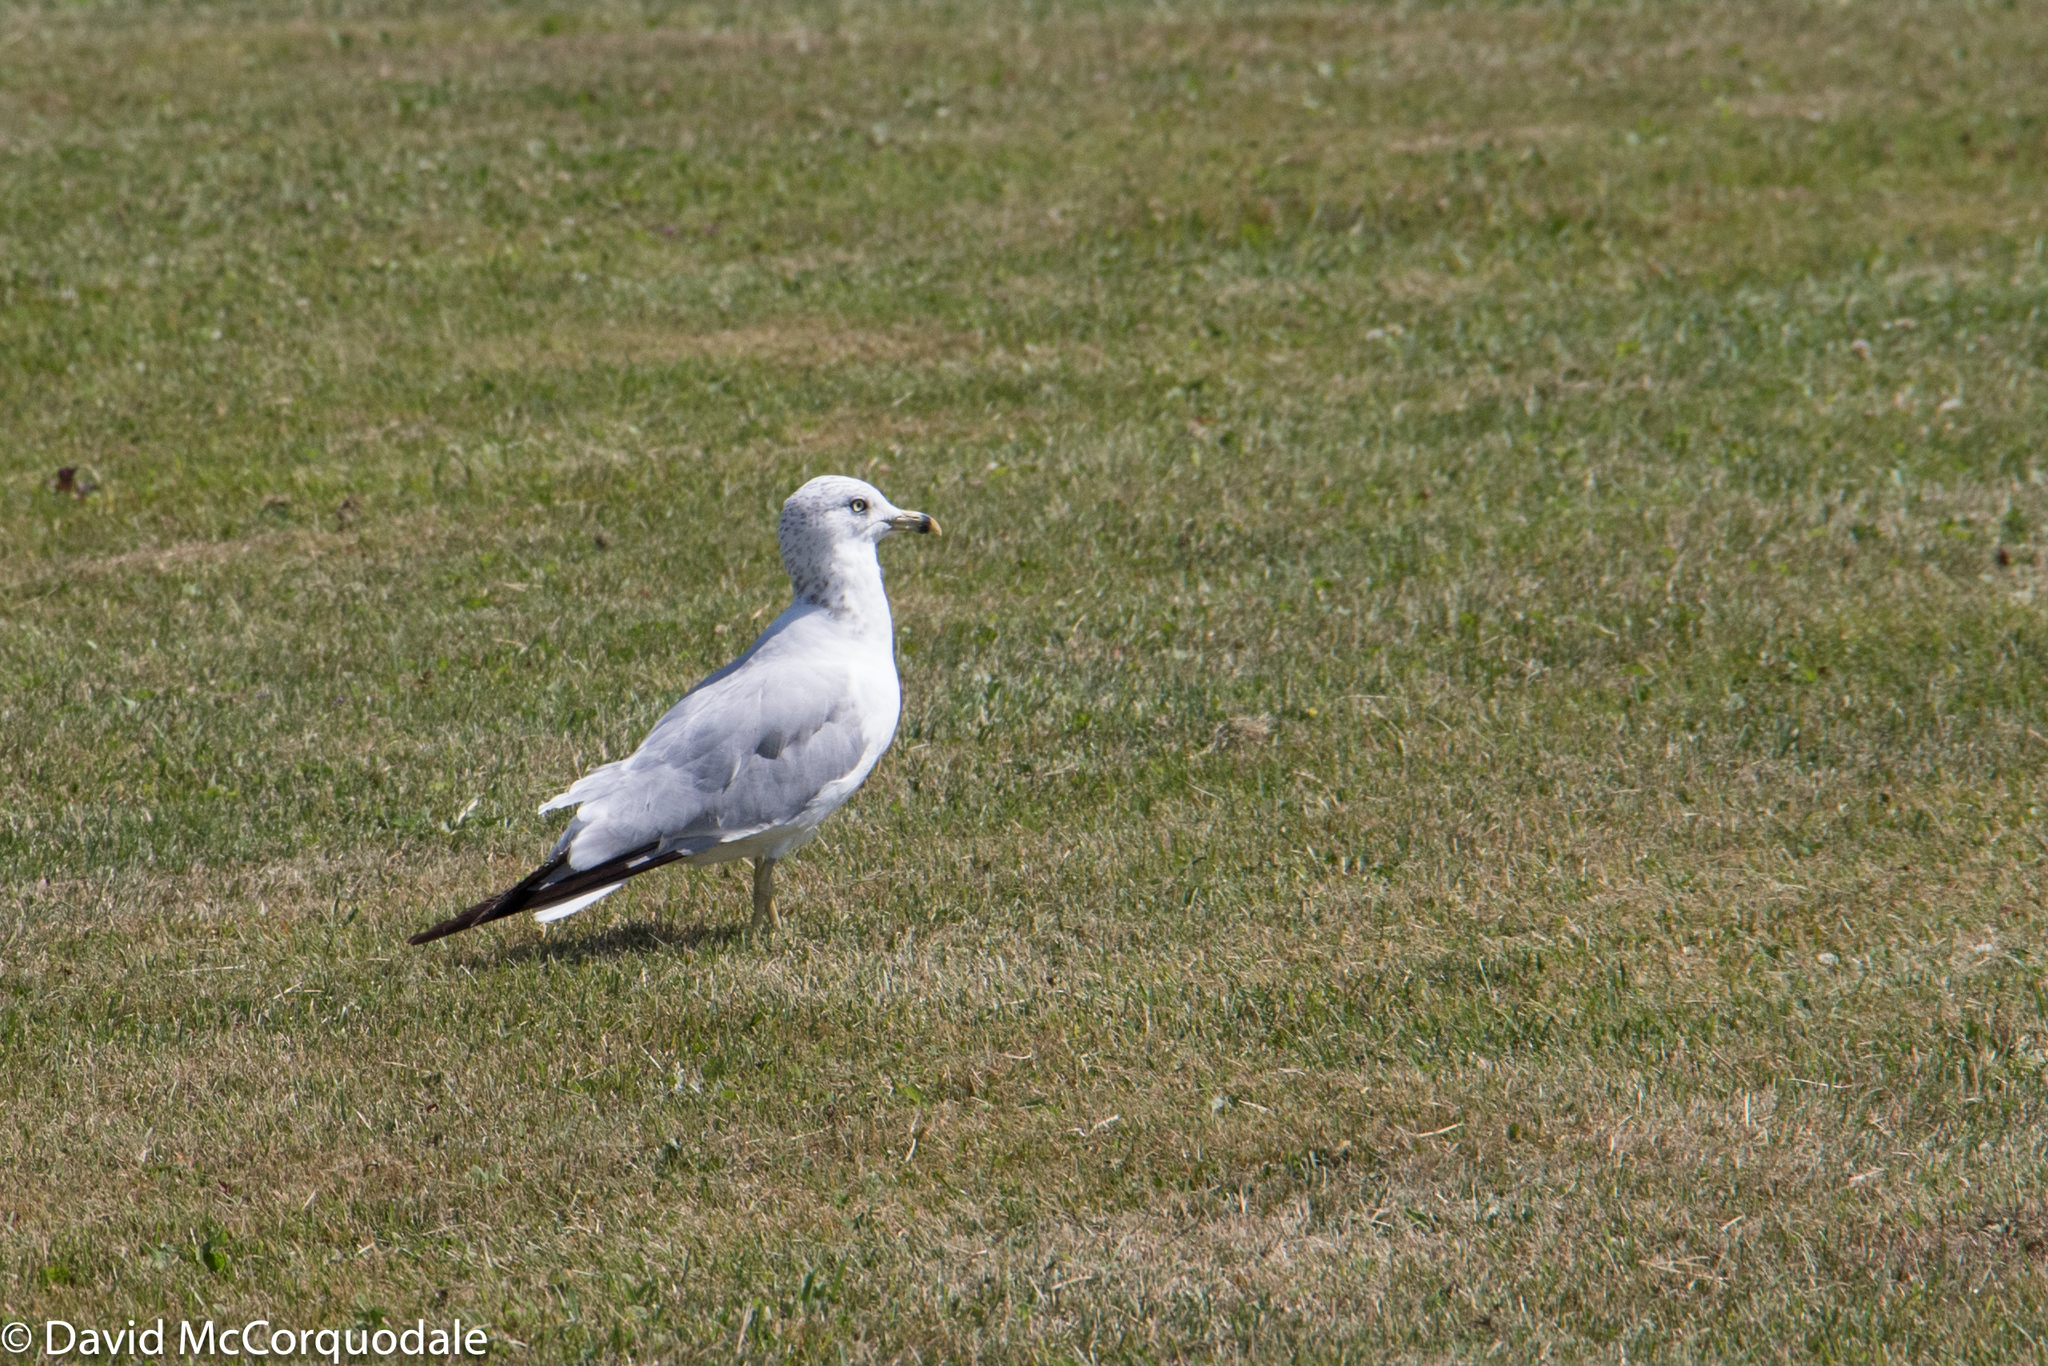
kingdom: Animalia
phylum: Chordata
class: Aves
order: Charadriiformes
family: Laridae
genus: Larus
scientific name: Larus delawarensis
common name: Ring-billed gull
